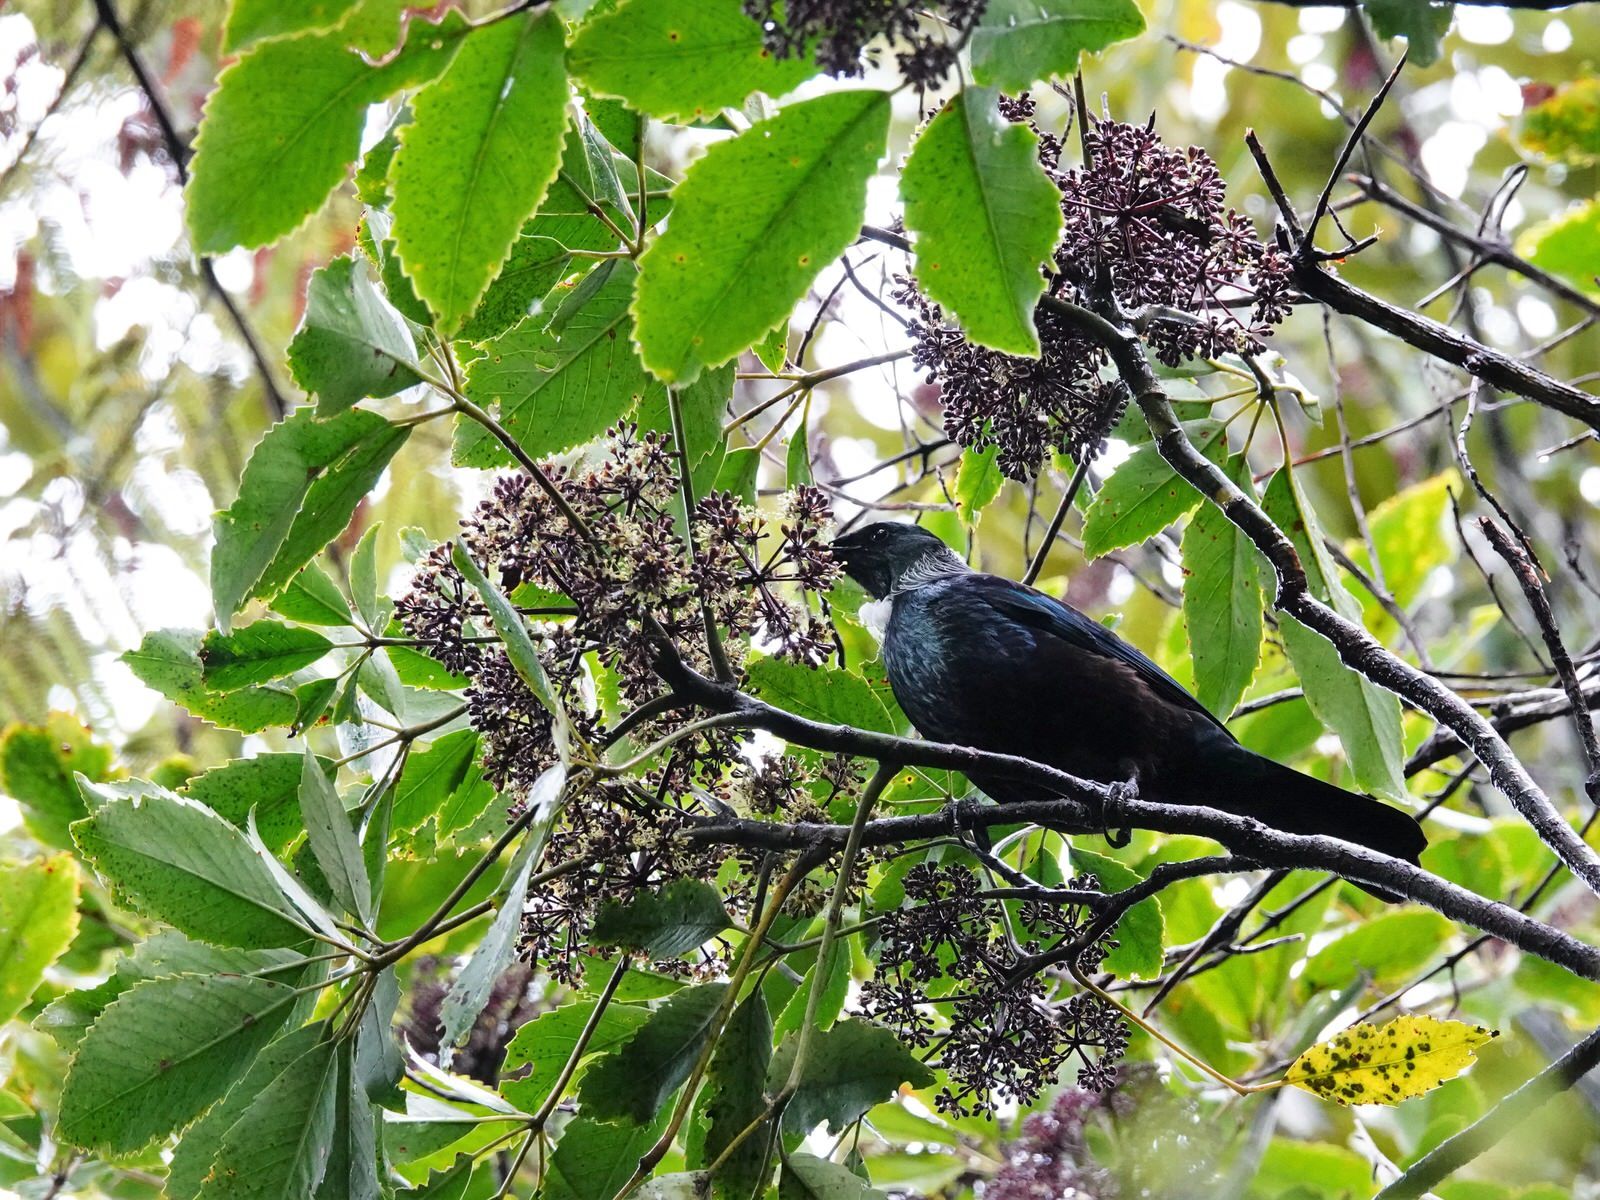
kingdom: Animalia
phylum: Chordata
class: Aves
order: Passeriformes
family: Meliphagidae
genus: Prosthemadera
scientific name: Prosthemadera novaeseelandiae
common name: Tui
